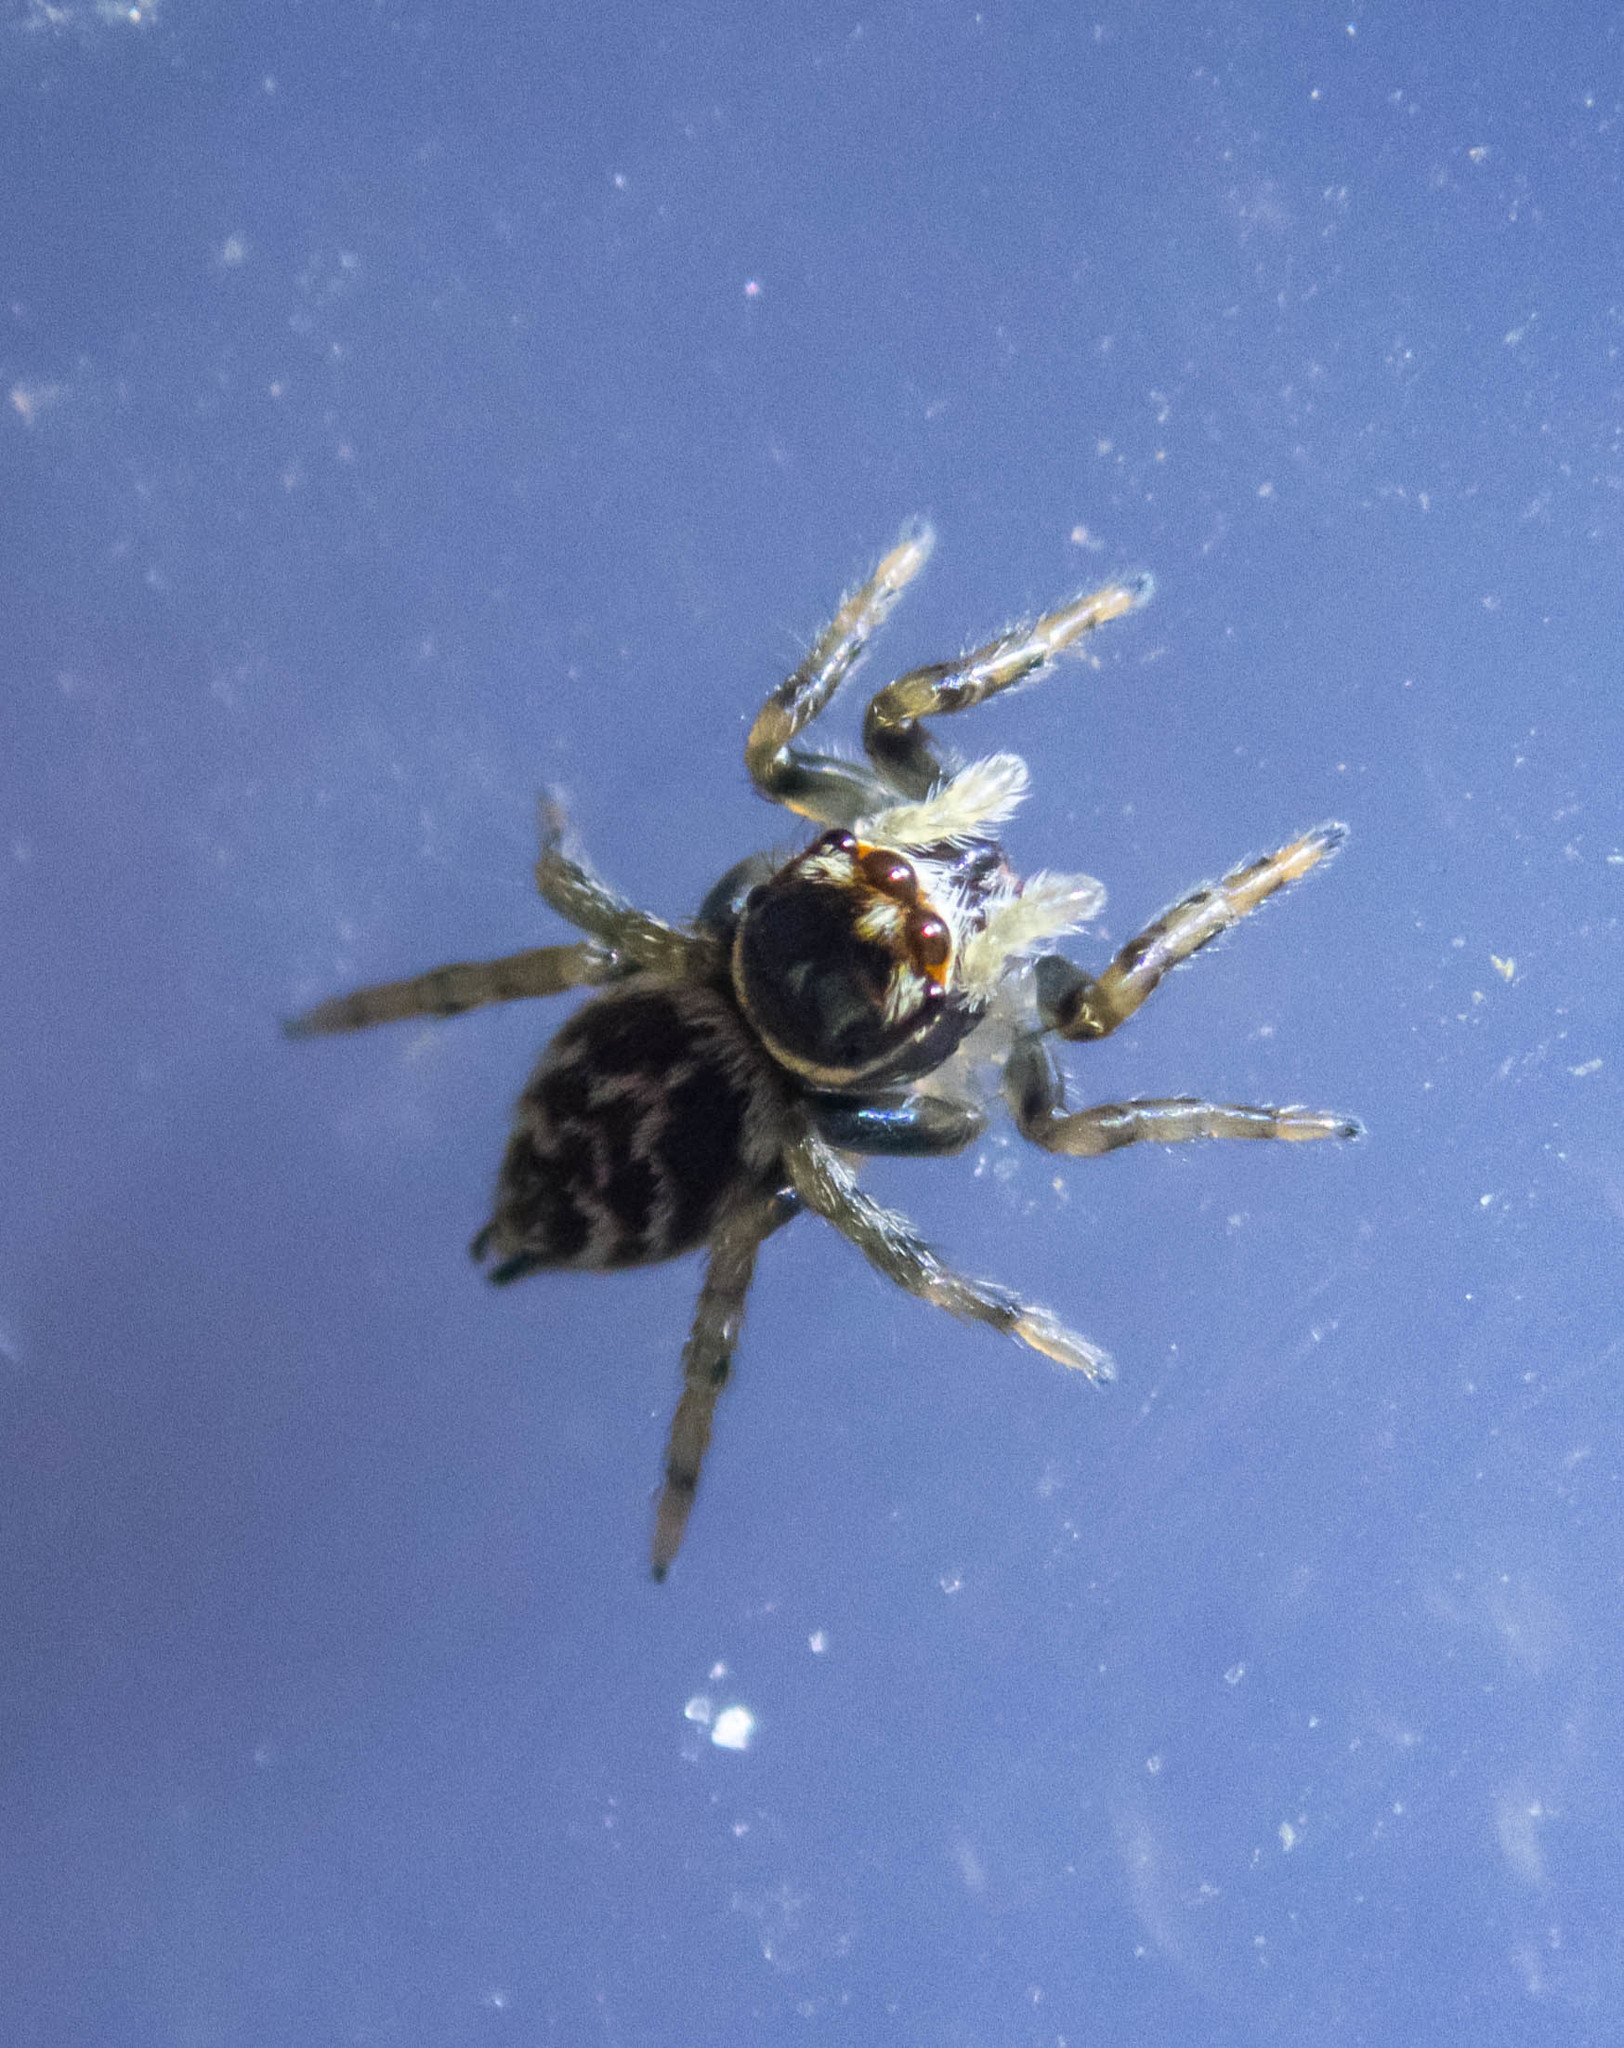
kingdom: Animalia
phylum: Arthropoda
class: Arachnida
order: Araneae
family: Salticidae
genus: Maratus
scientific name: Maratus griseus
